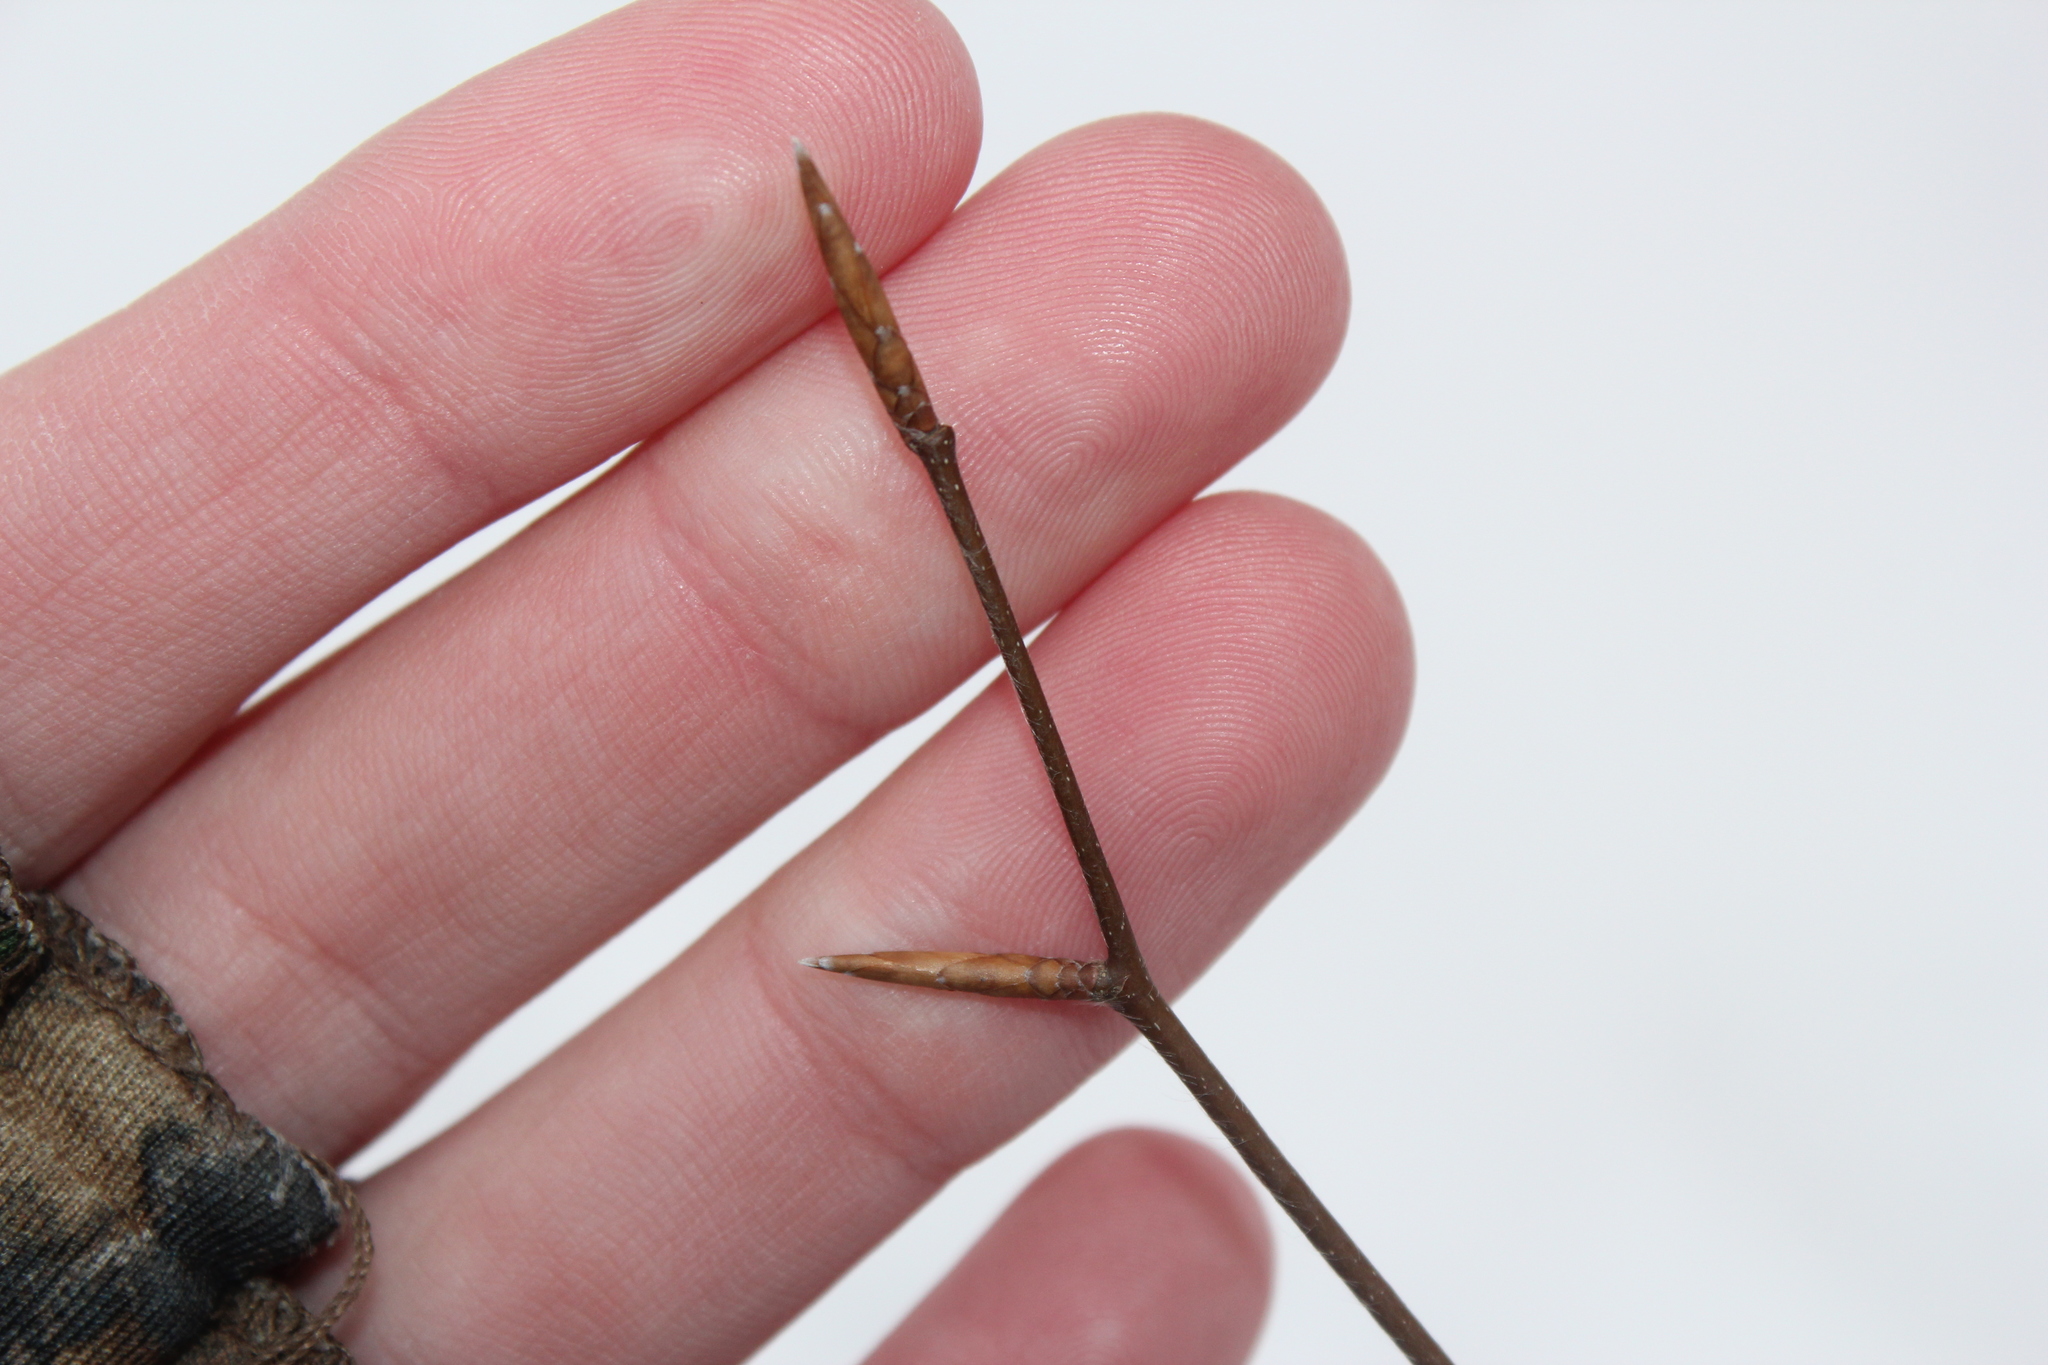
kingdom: Plantae
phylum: Tracheophyta
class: Magnoliopsida
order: Fagales
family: Fagaceae
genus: Fagus
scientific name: Fagus grandifolia
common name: American beech
